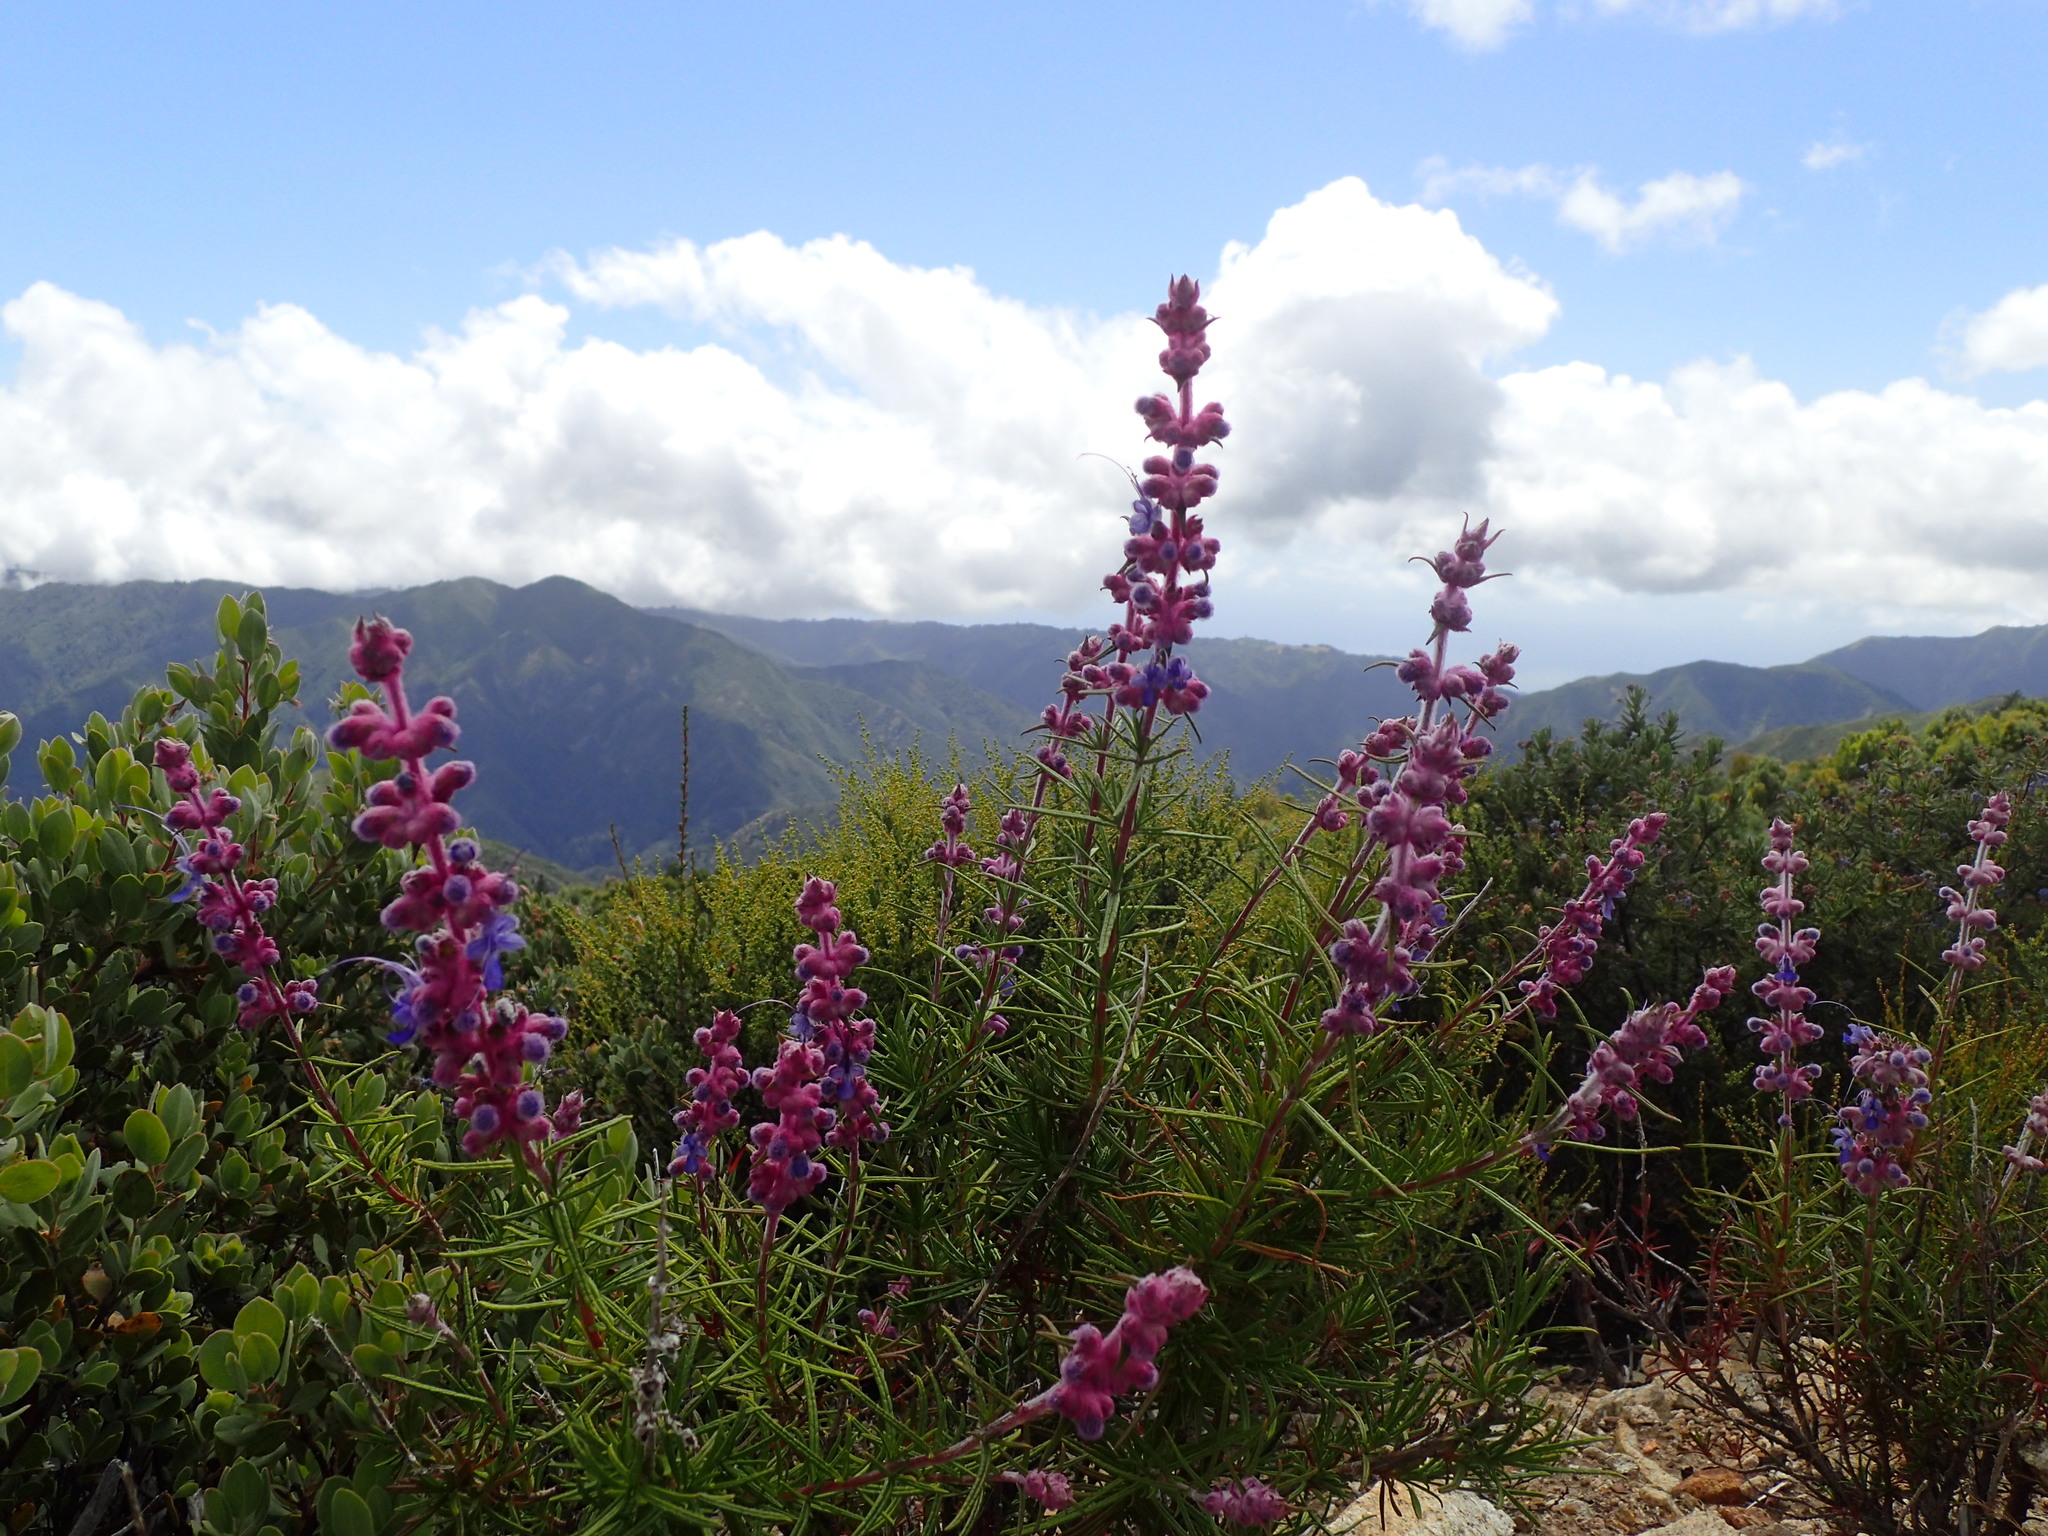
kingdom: Plantae
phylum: Tracheophyta
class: Magnoliopsida
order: Lamiales
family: Lamiaceae
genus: Trichostema
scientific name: Trichostema lanatum
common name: Woolly bluecurls
